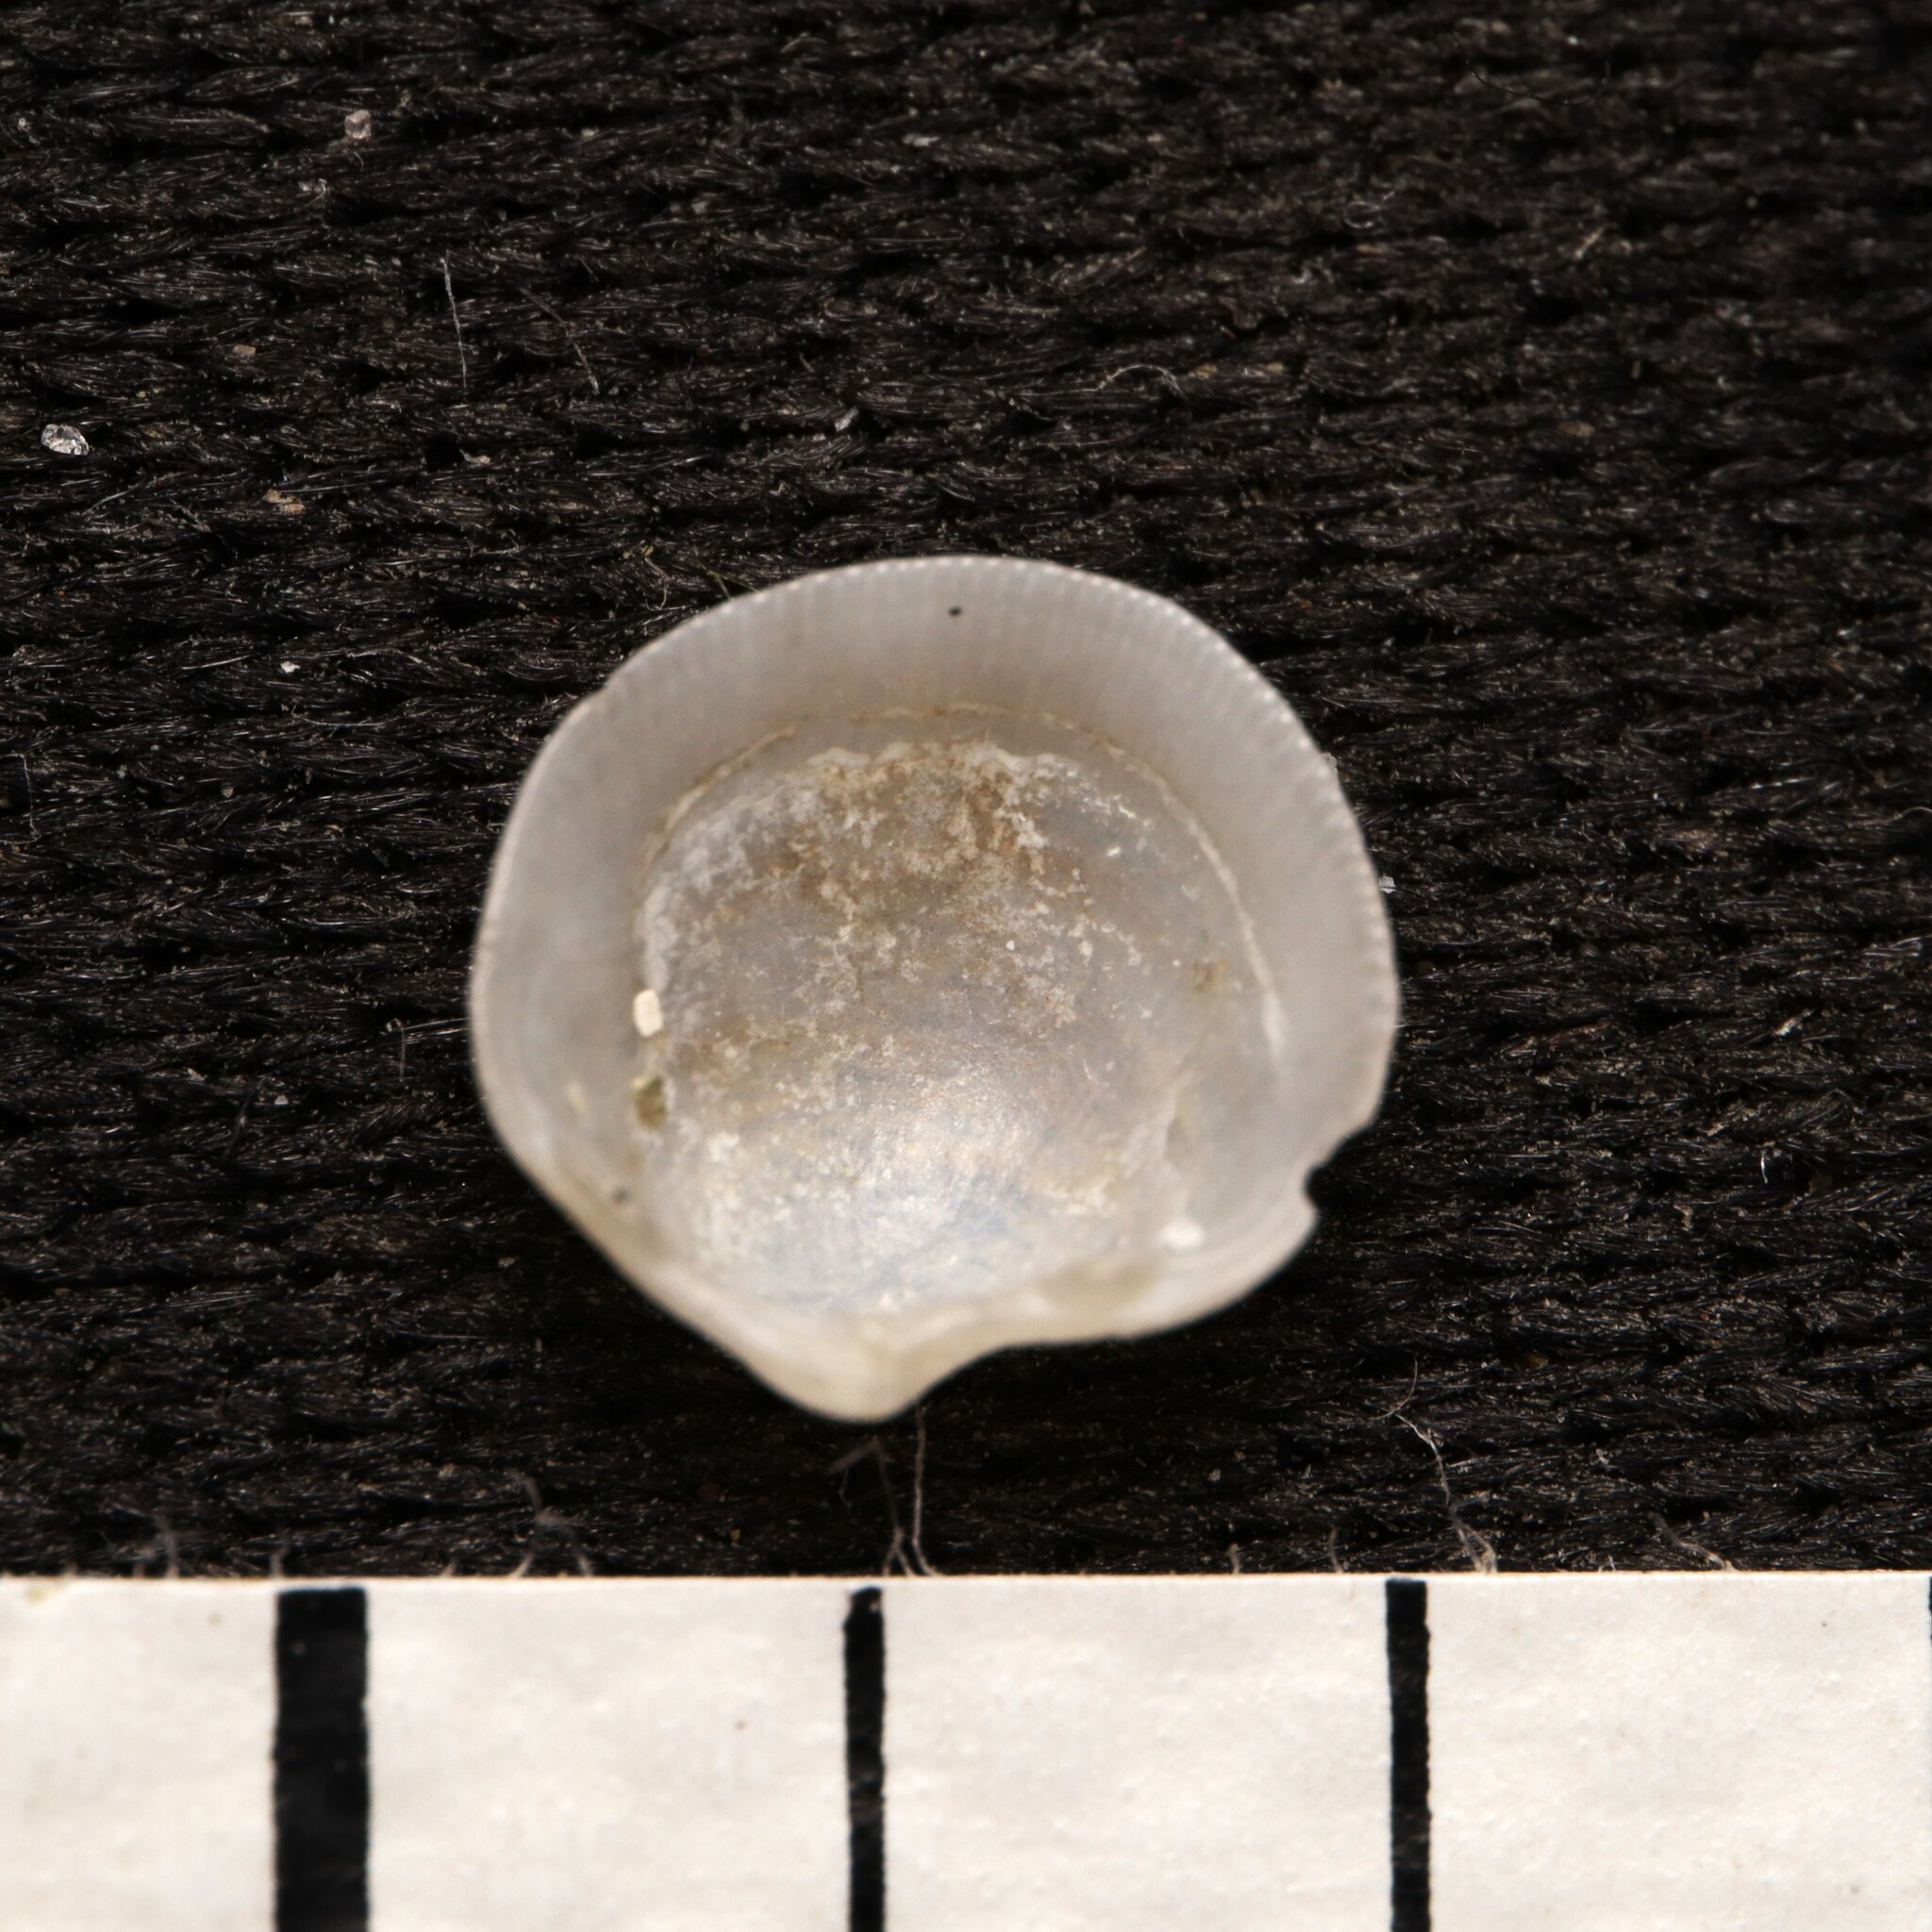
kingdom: Animalia
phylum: Mollusca
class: Bivalvia
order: Lucinida
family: Lucinidae
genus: Parvilucina
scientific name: Parvilucina crenella
